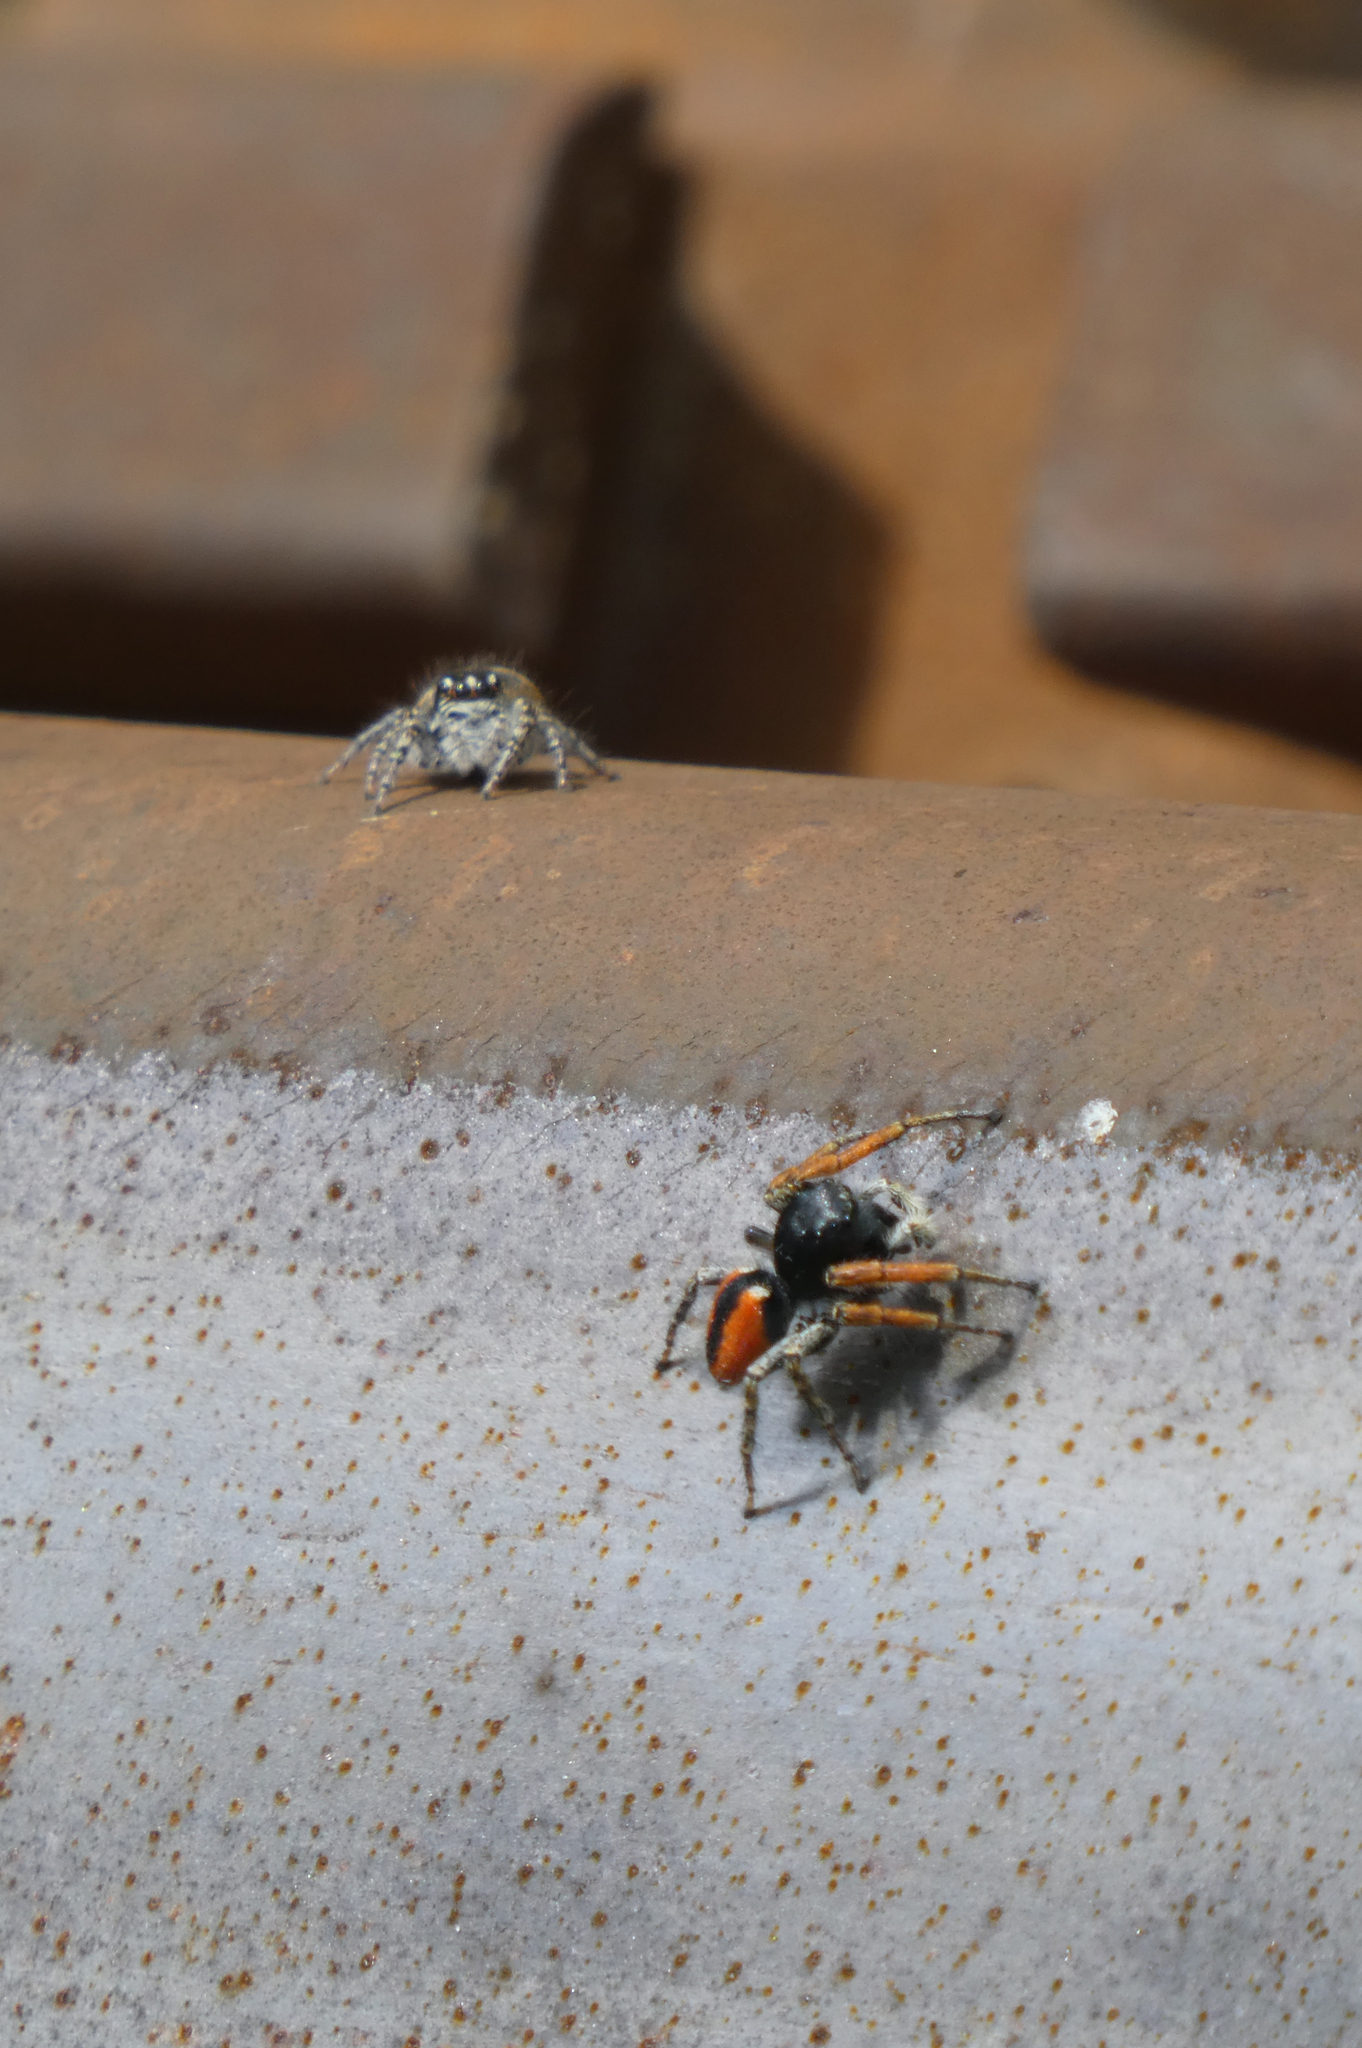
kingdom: Animalia
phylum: Arthropoda
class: Arachnida
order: Araneae
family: Salticidae
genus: Philaeus
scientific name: Philaeus chrysops
